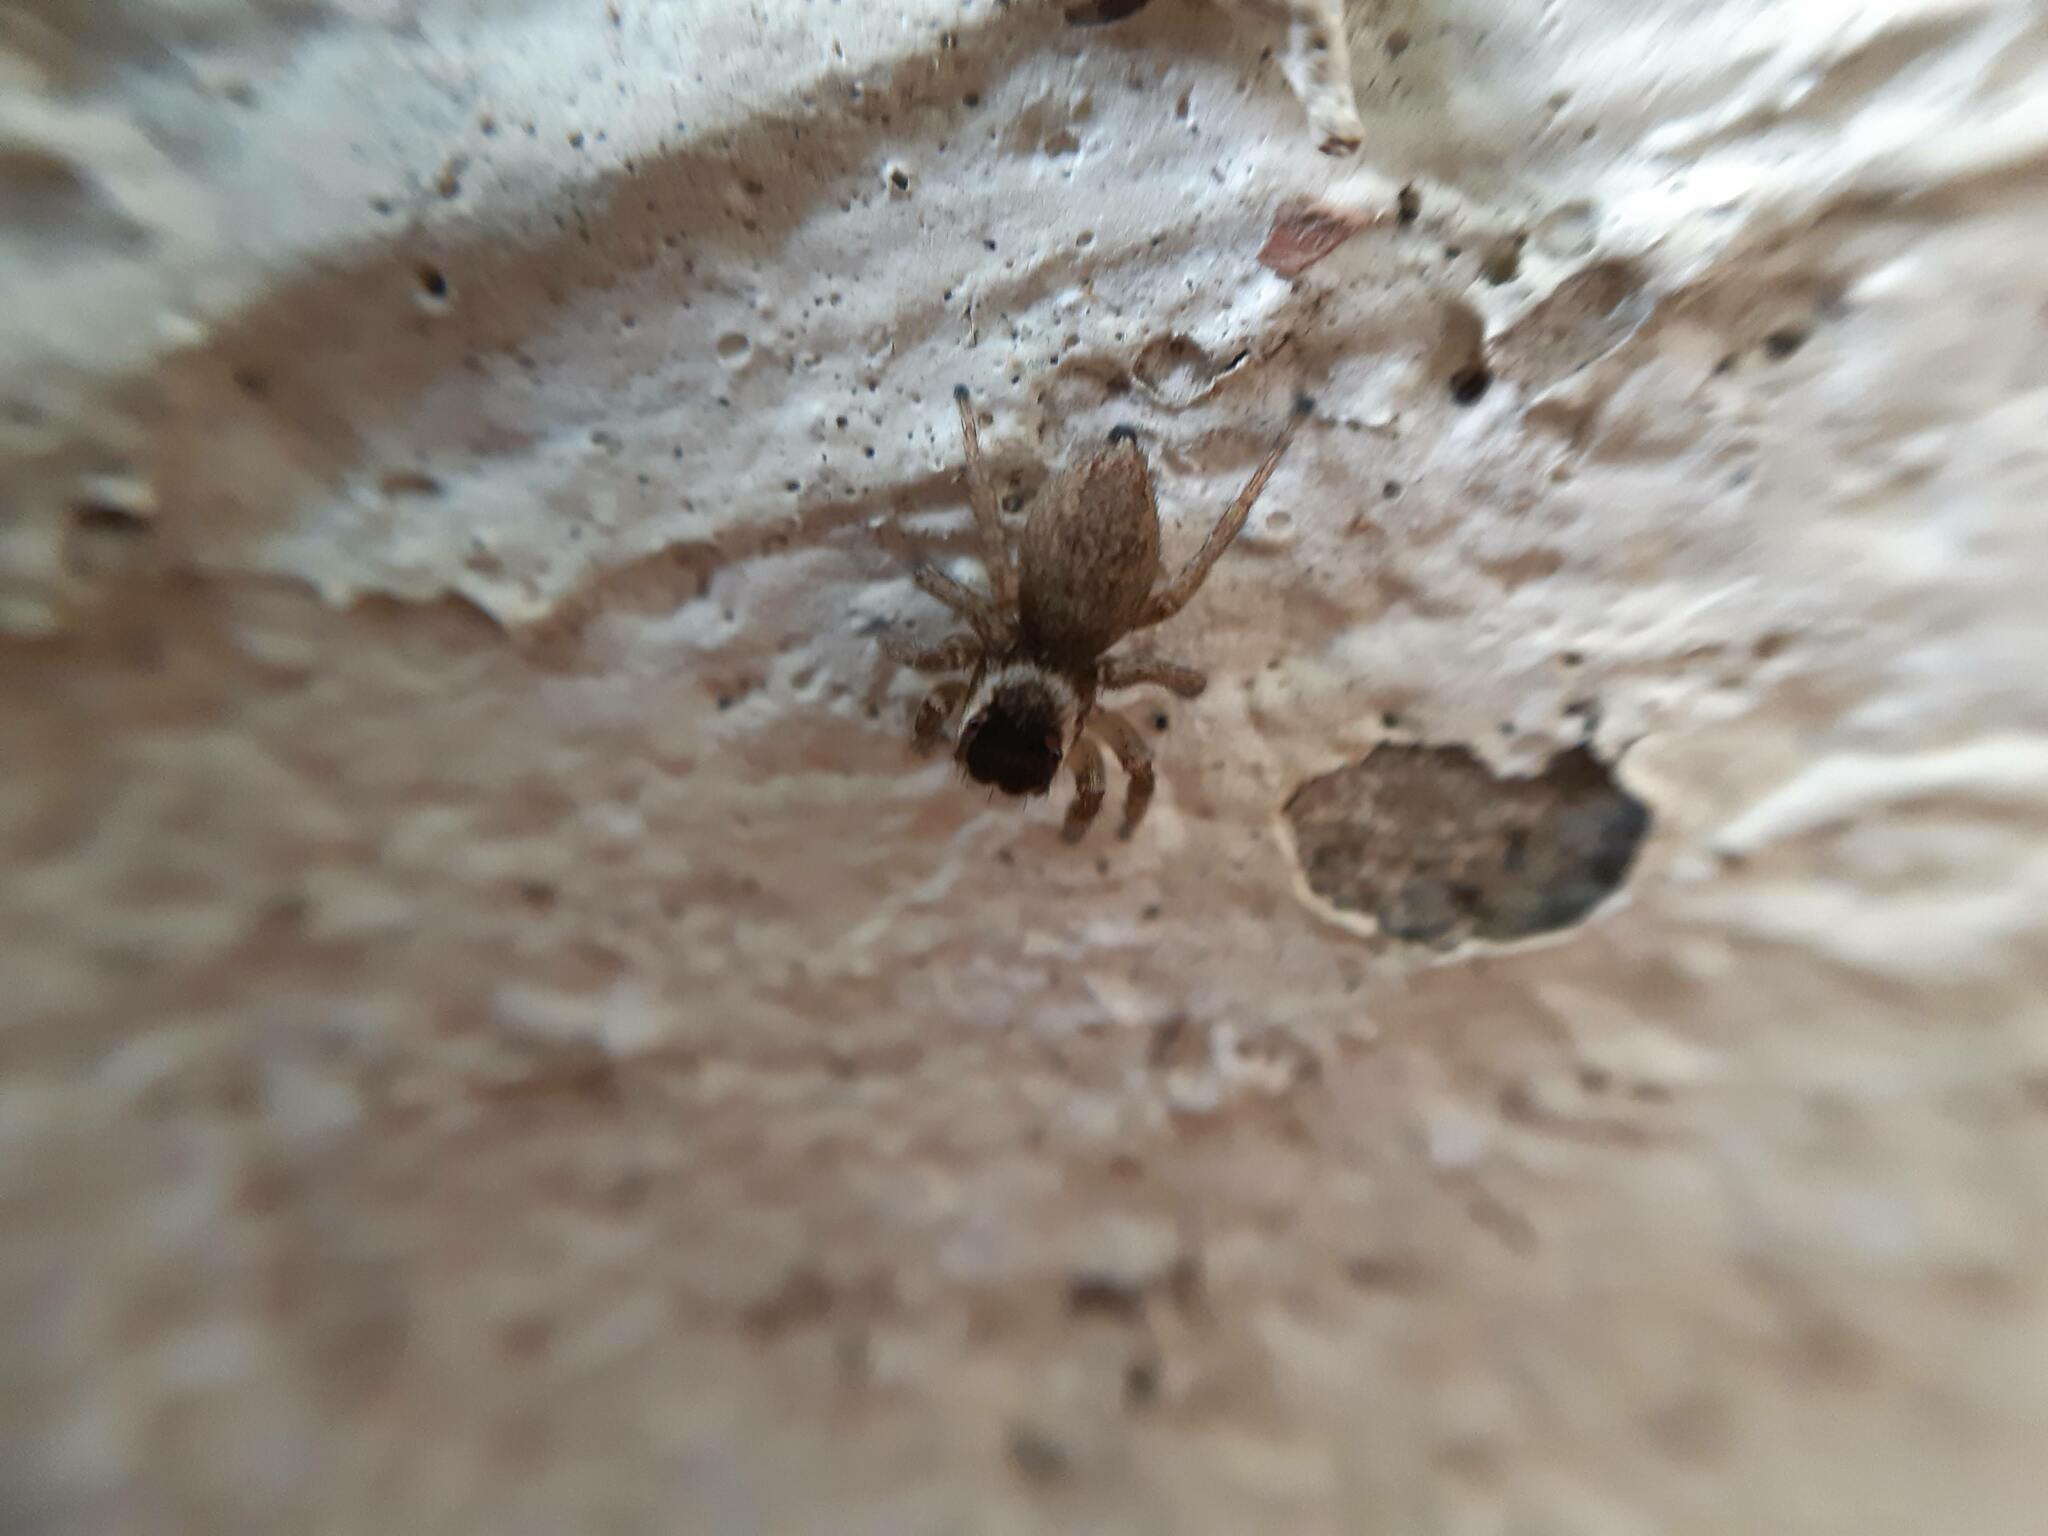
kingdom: Animalia
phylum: Arthropoda
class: Arachnida
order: Araneae
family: Salticidae
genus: Maratus
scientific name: Maratus griseus
